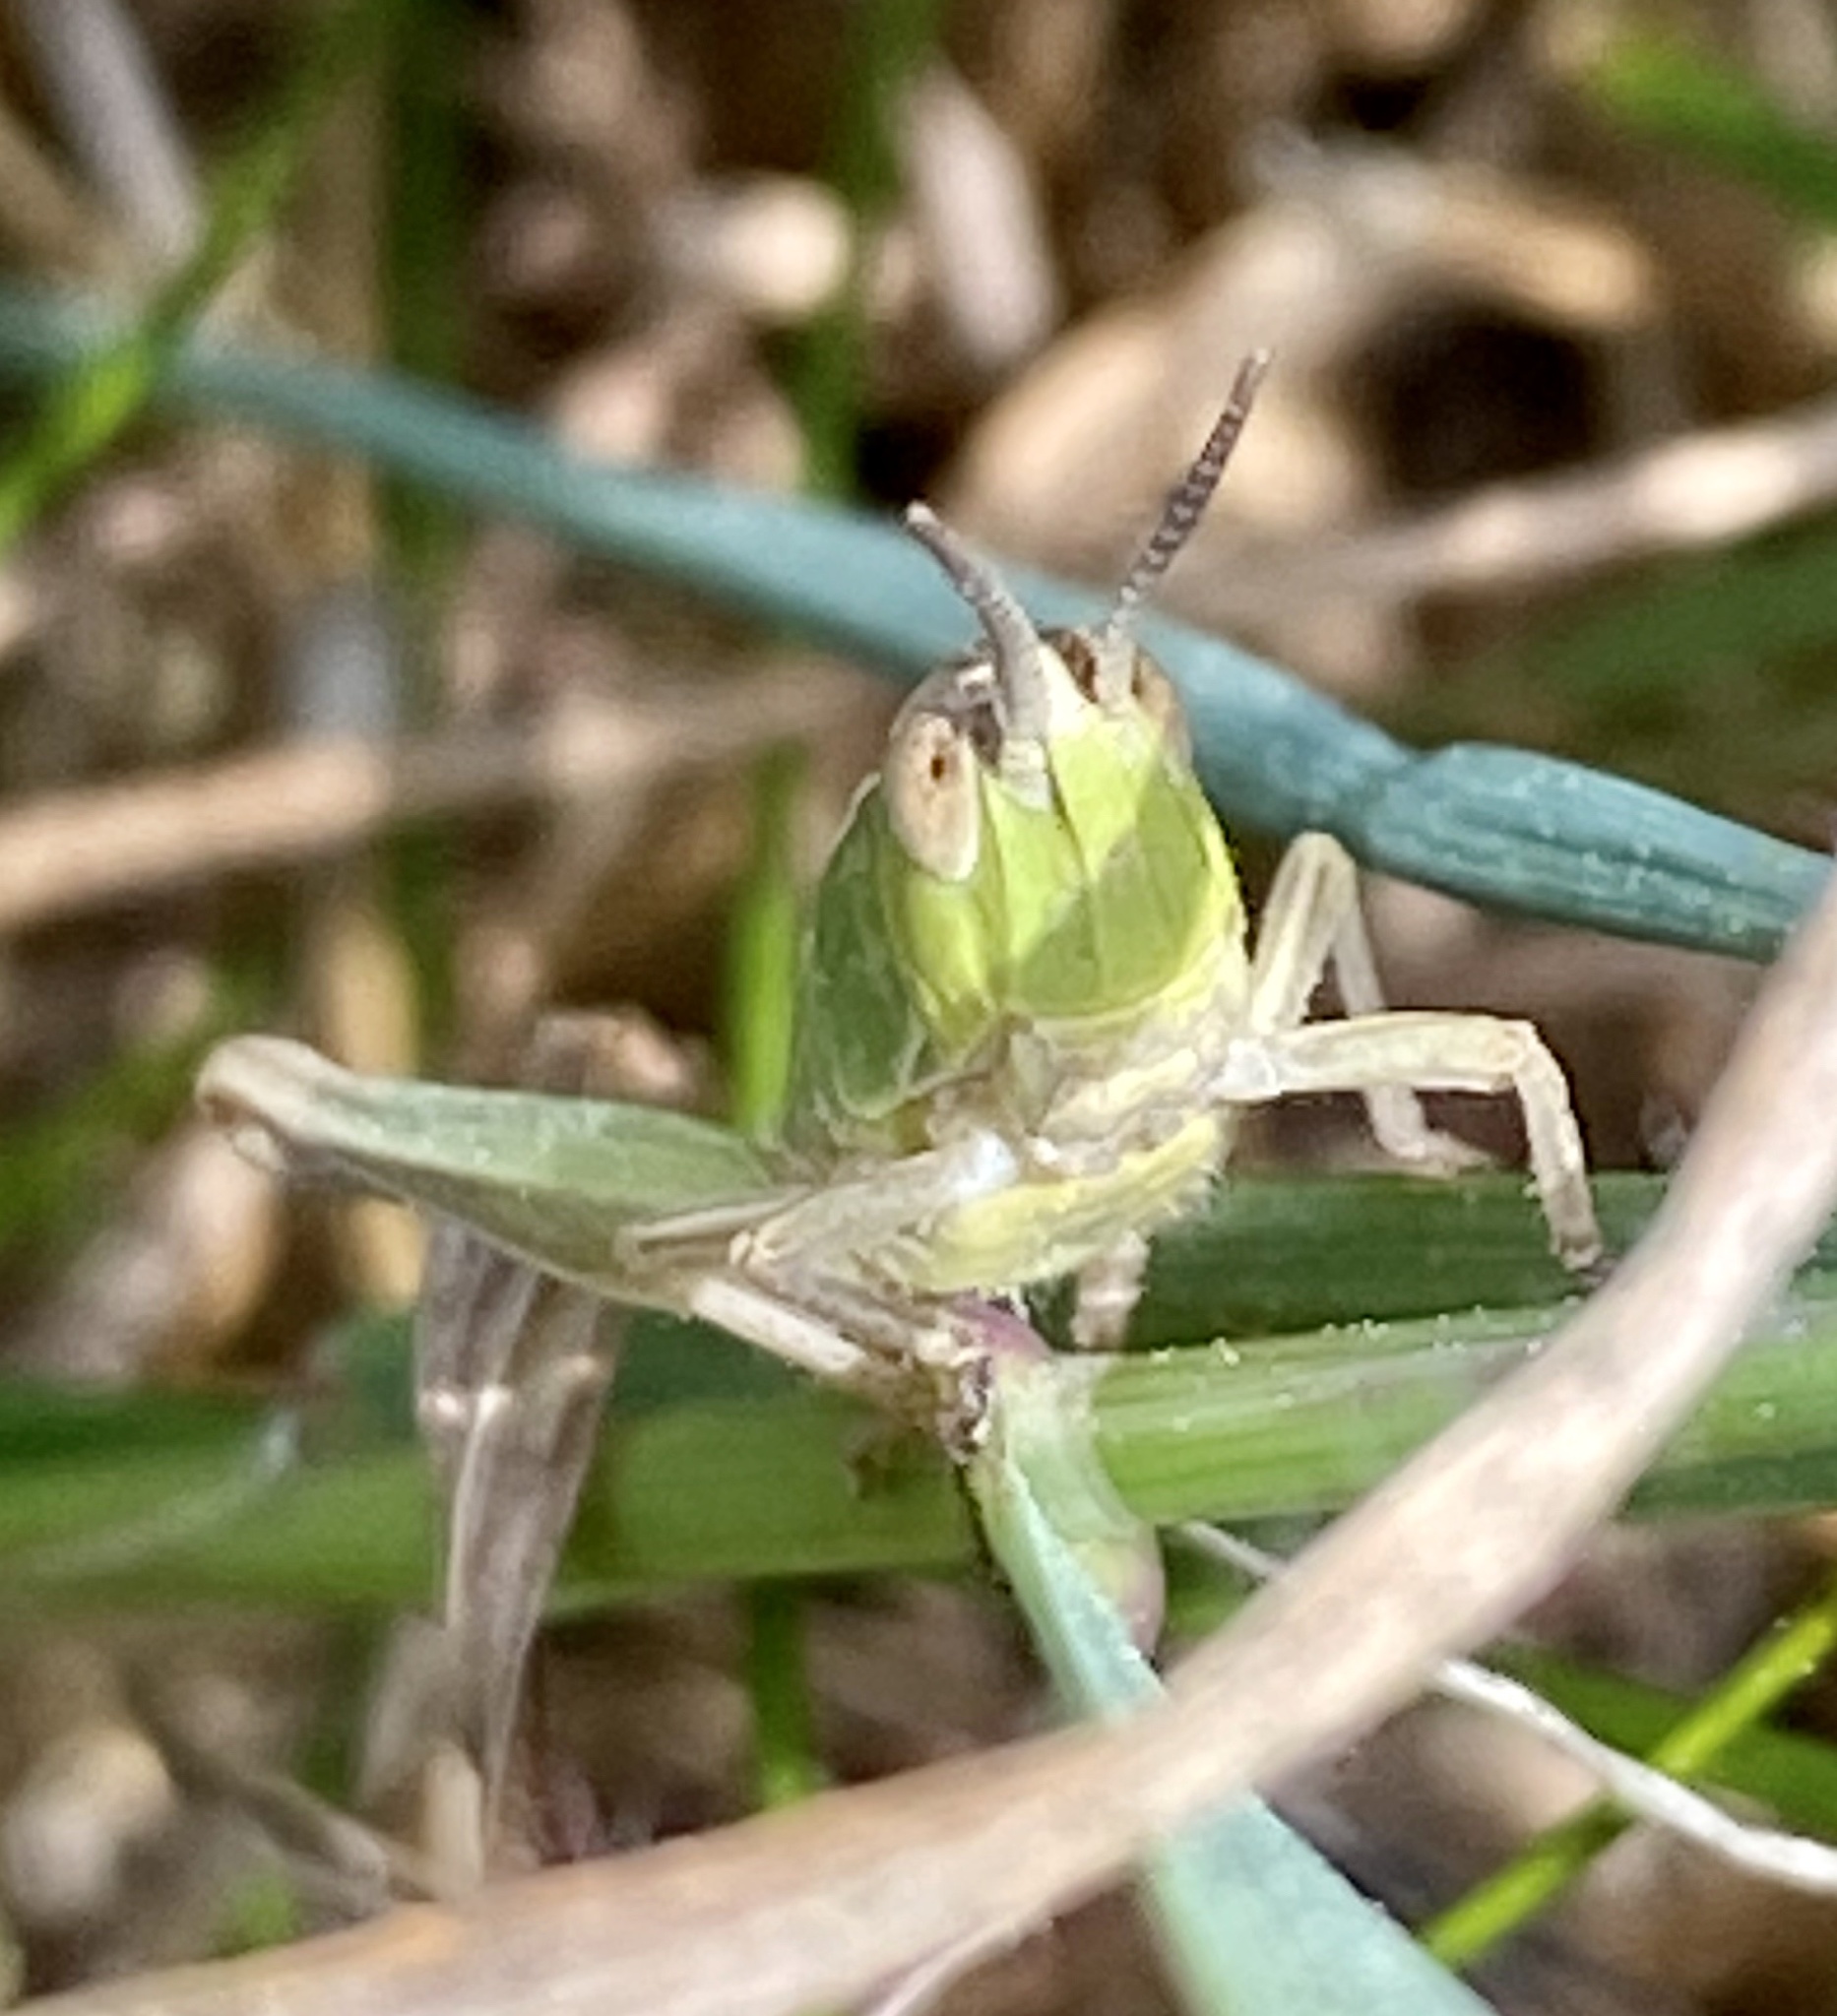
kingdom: Animalia
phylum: Arthropoda
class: Insecta
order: Orthoptera
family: Acrididae
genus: Chorthippus
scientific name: Chorthippus albomarginatus
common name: Lesser marsh grasshopper
